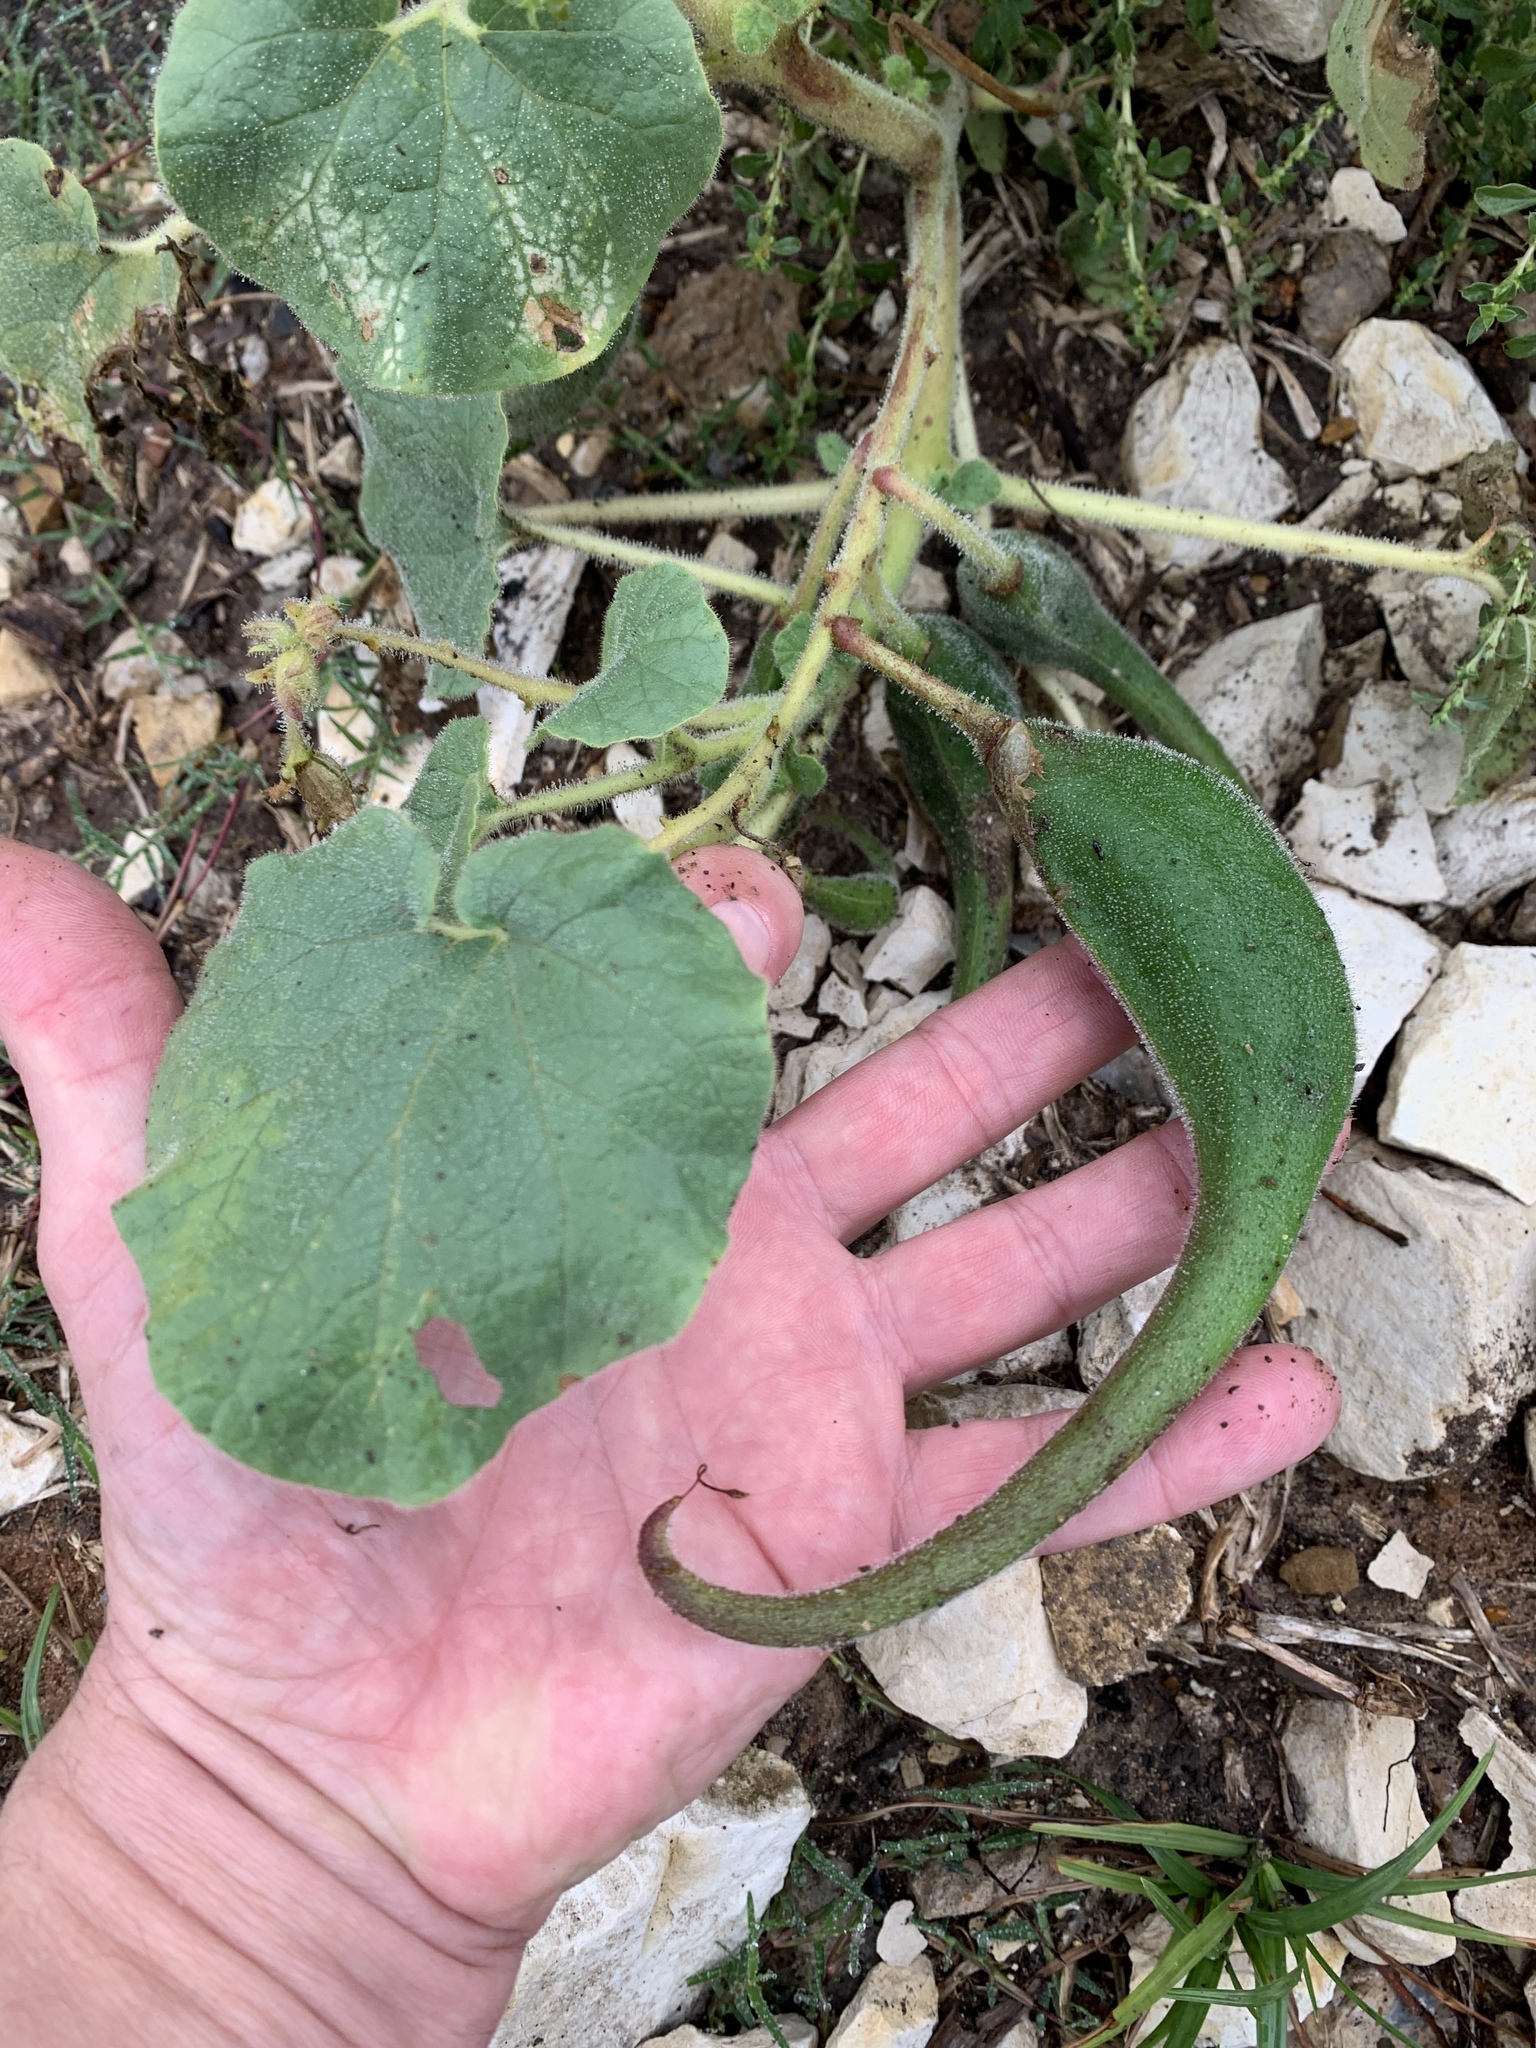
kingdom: Plantae
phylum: Tracheophyta
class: Magnoliopsida
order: Lamiales
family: Martyniaceae
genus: Proboscidea
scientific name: Proboscidea louisianica
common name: Elephant tusks
